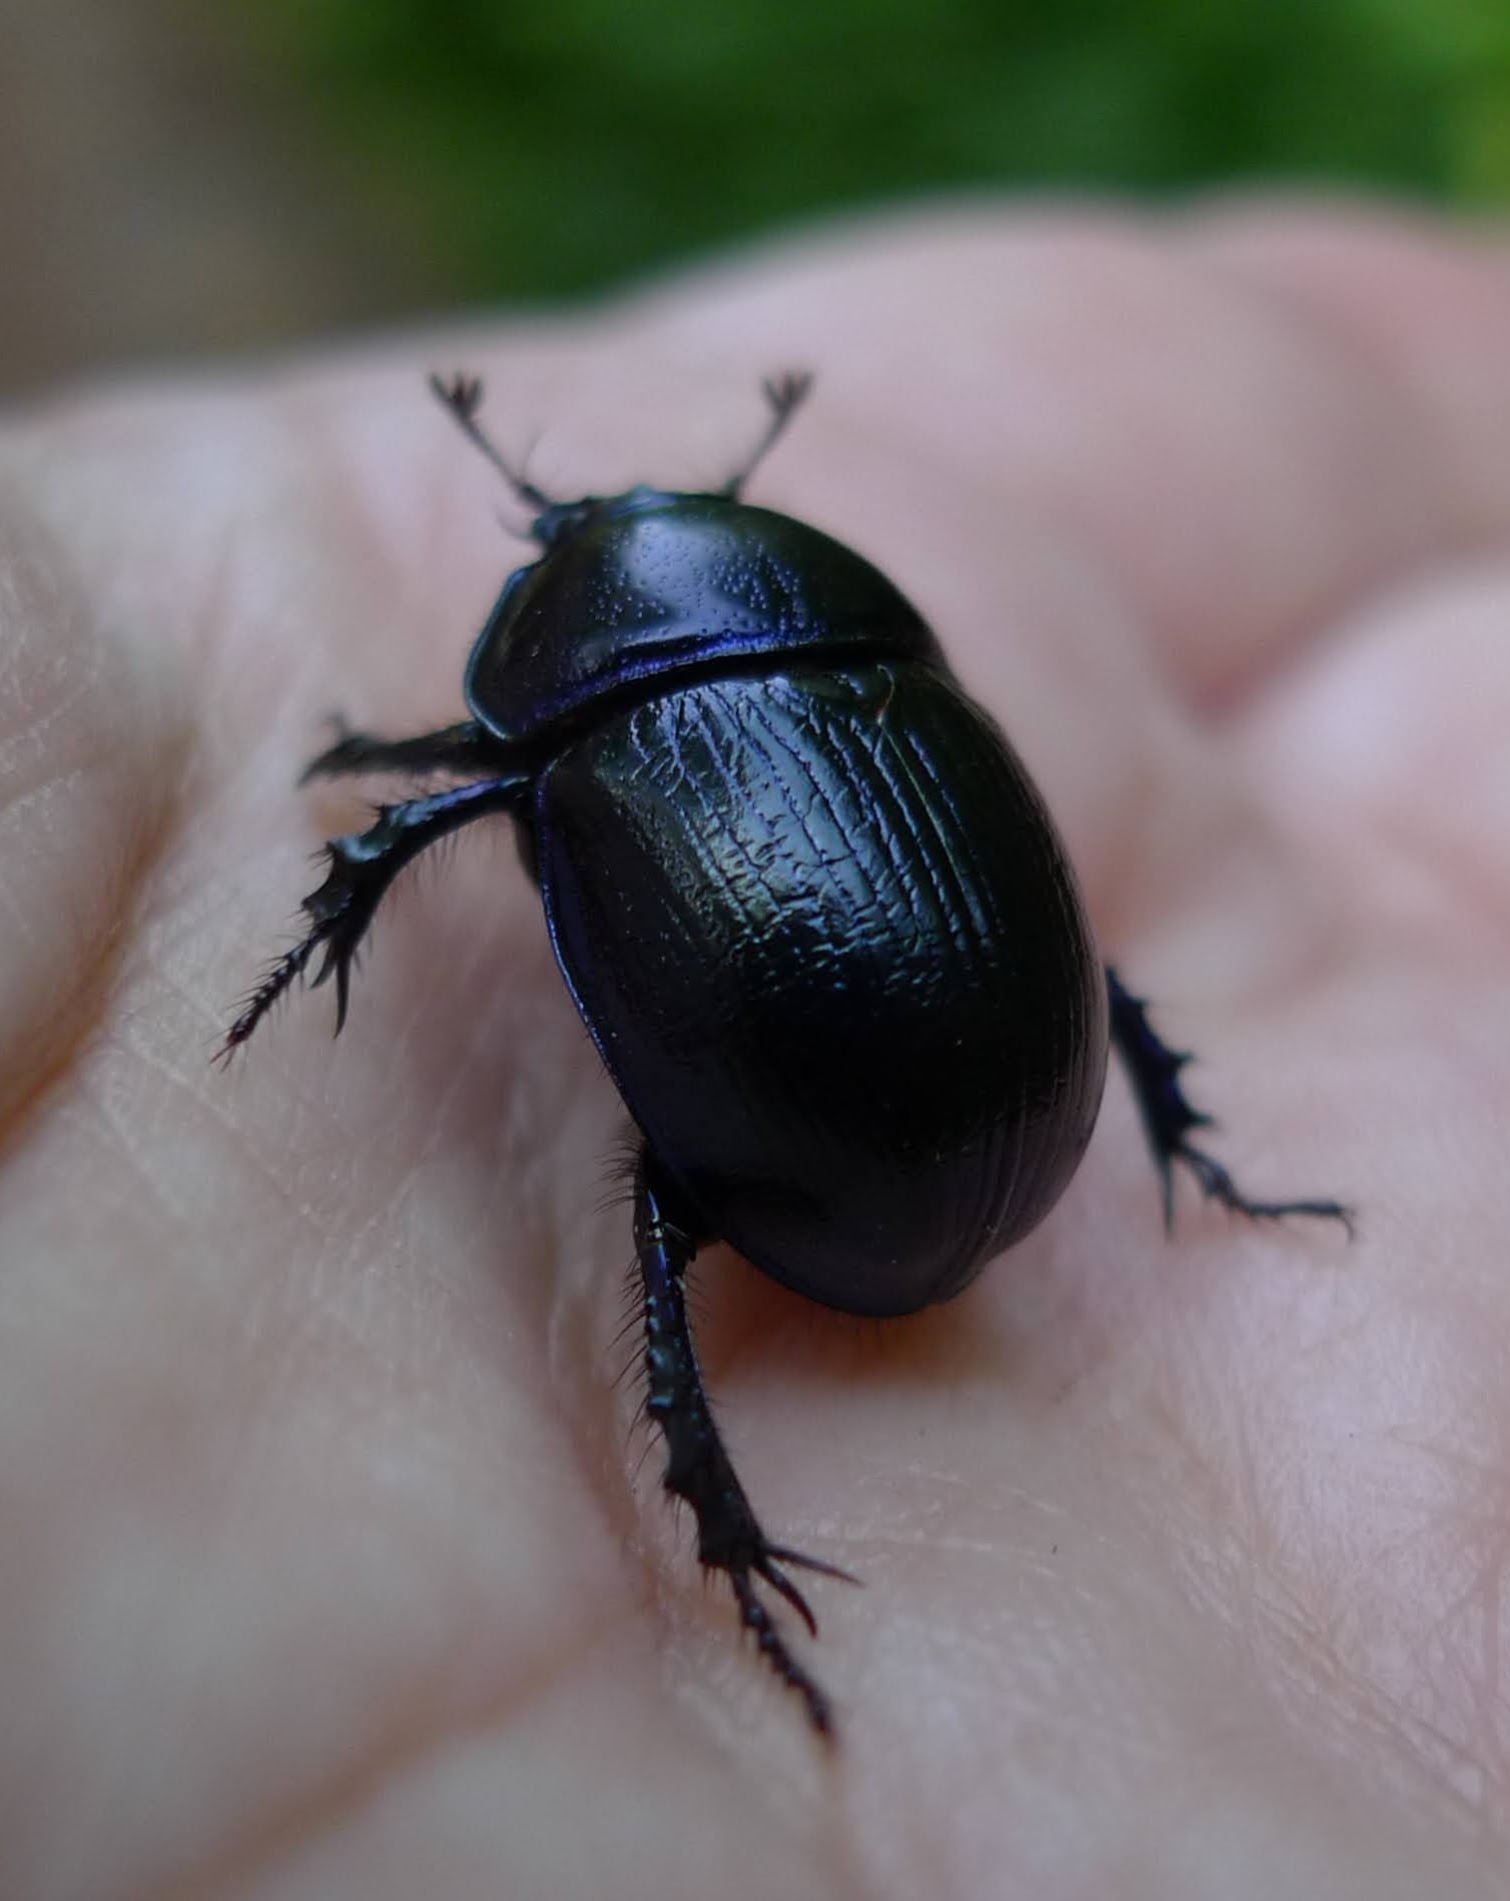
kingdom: Animalia
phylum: Arthropoda
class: Insecta
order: Coleoptera
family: Geotrupidae
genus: Anoplotrupes
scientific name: Anoplotrupes stercorosus
